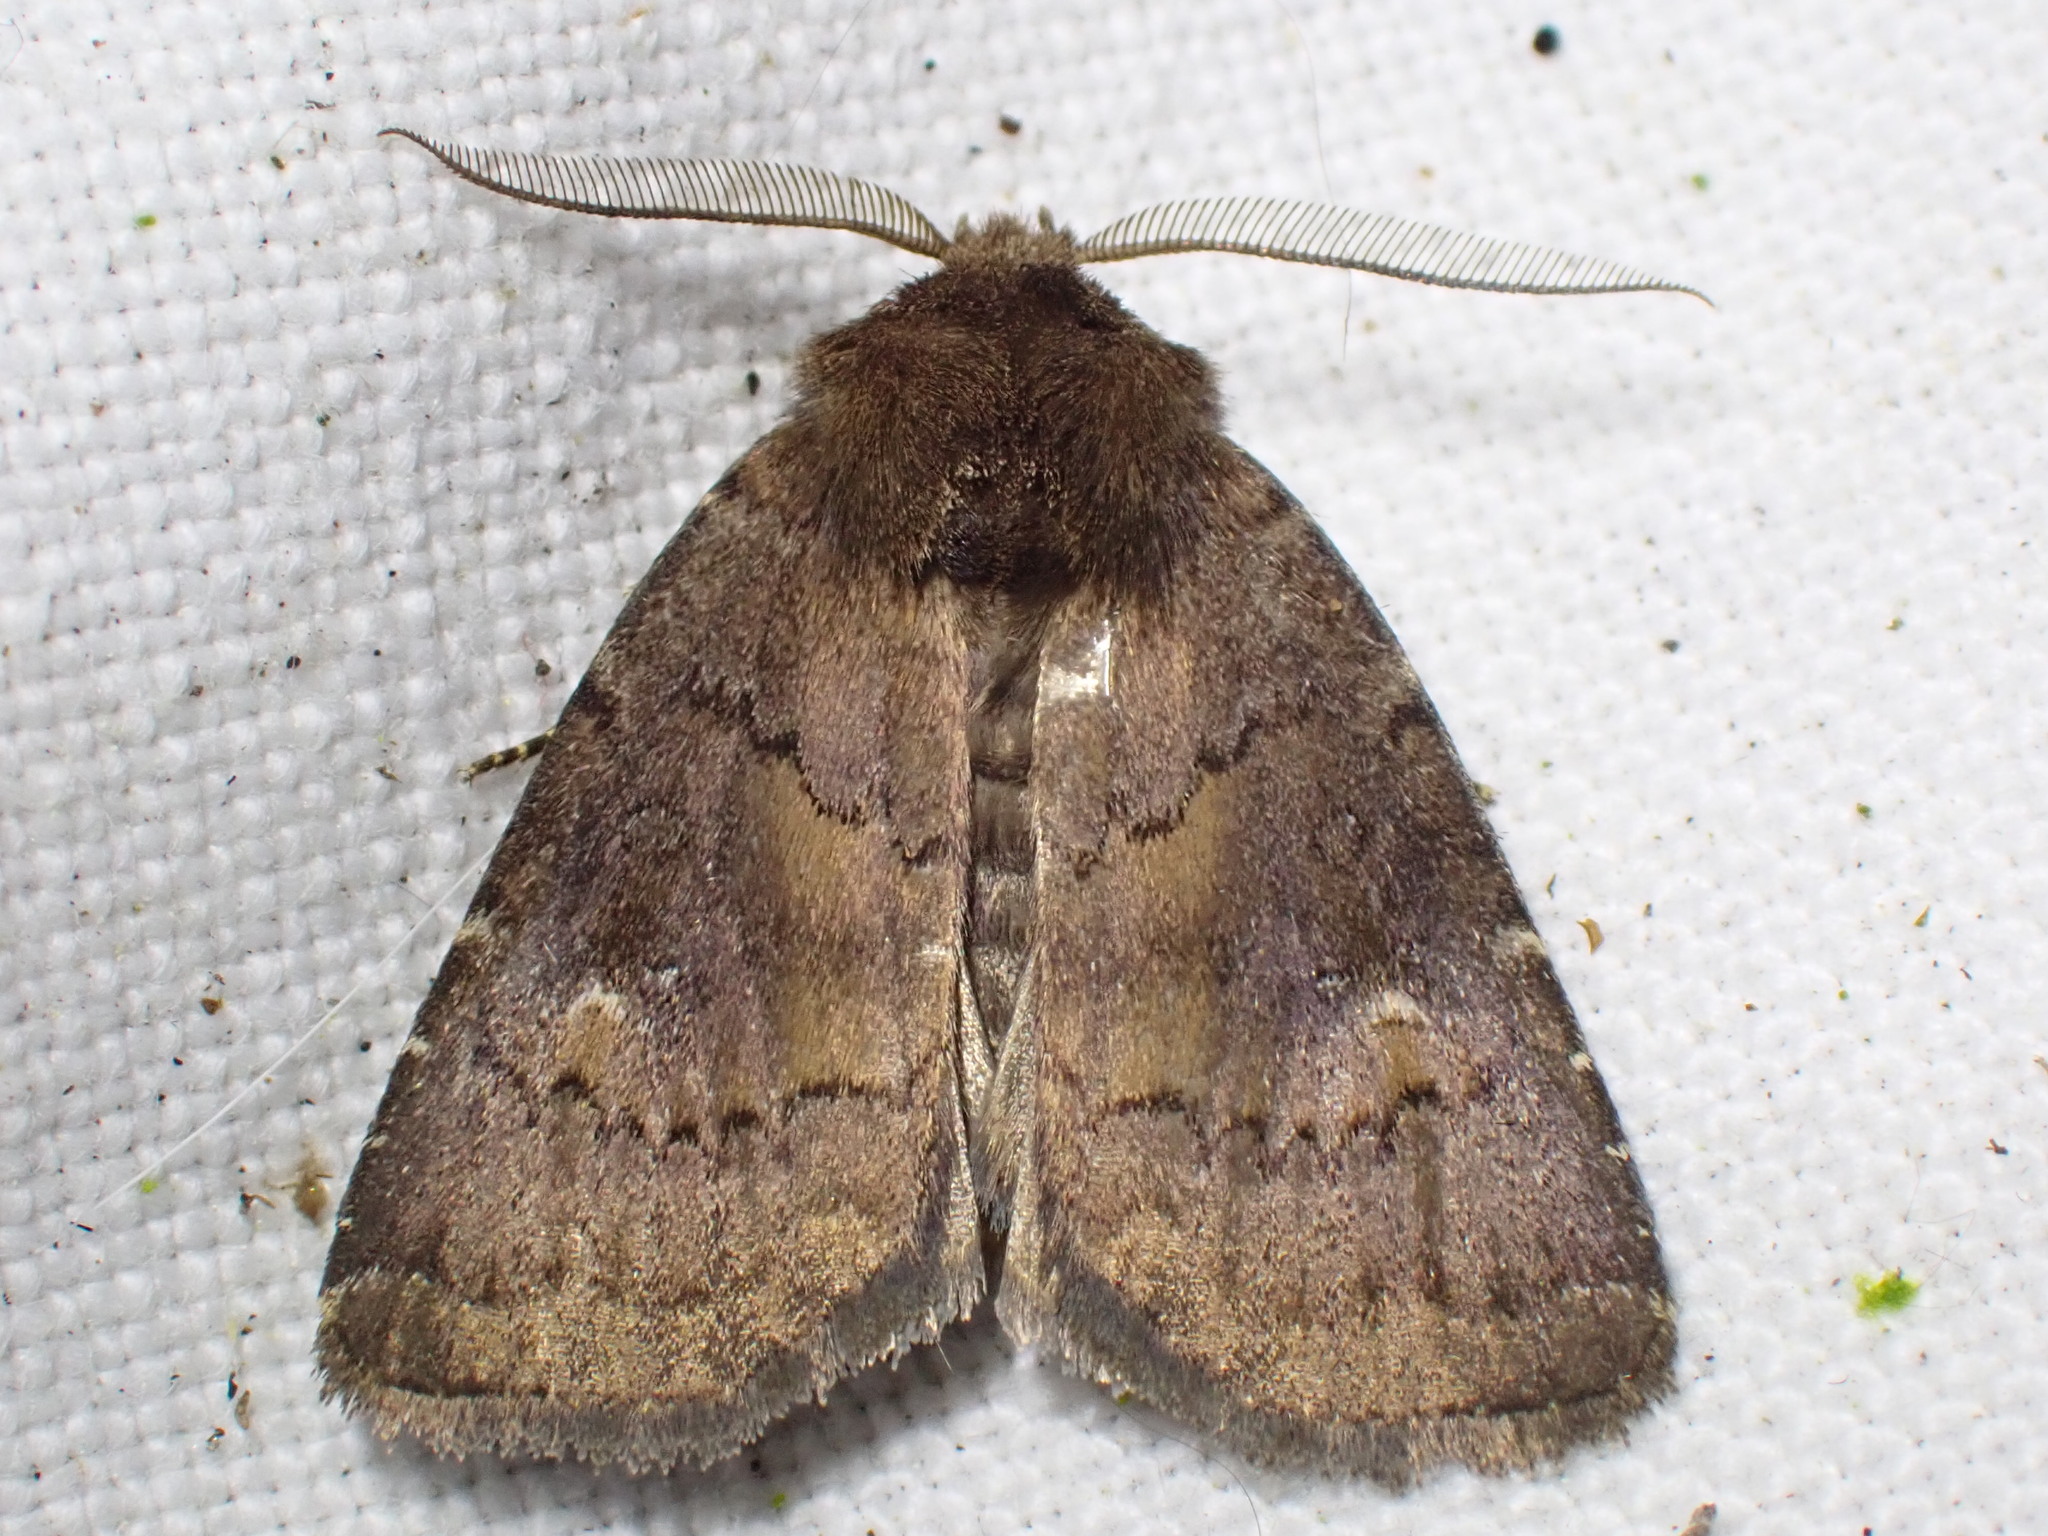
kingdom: Animalia
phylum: Arthropoda
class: Insecta
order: Lepidoptera
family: Noctuidae
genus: Charanyca
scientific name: Charanyca ferruginea
